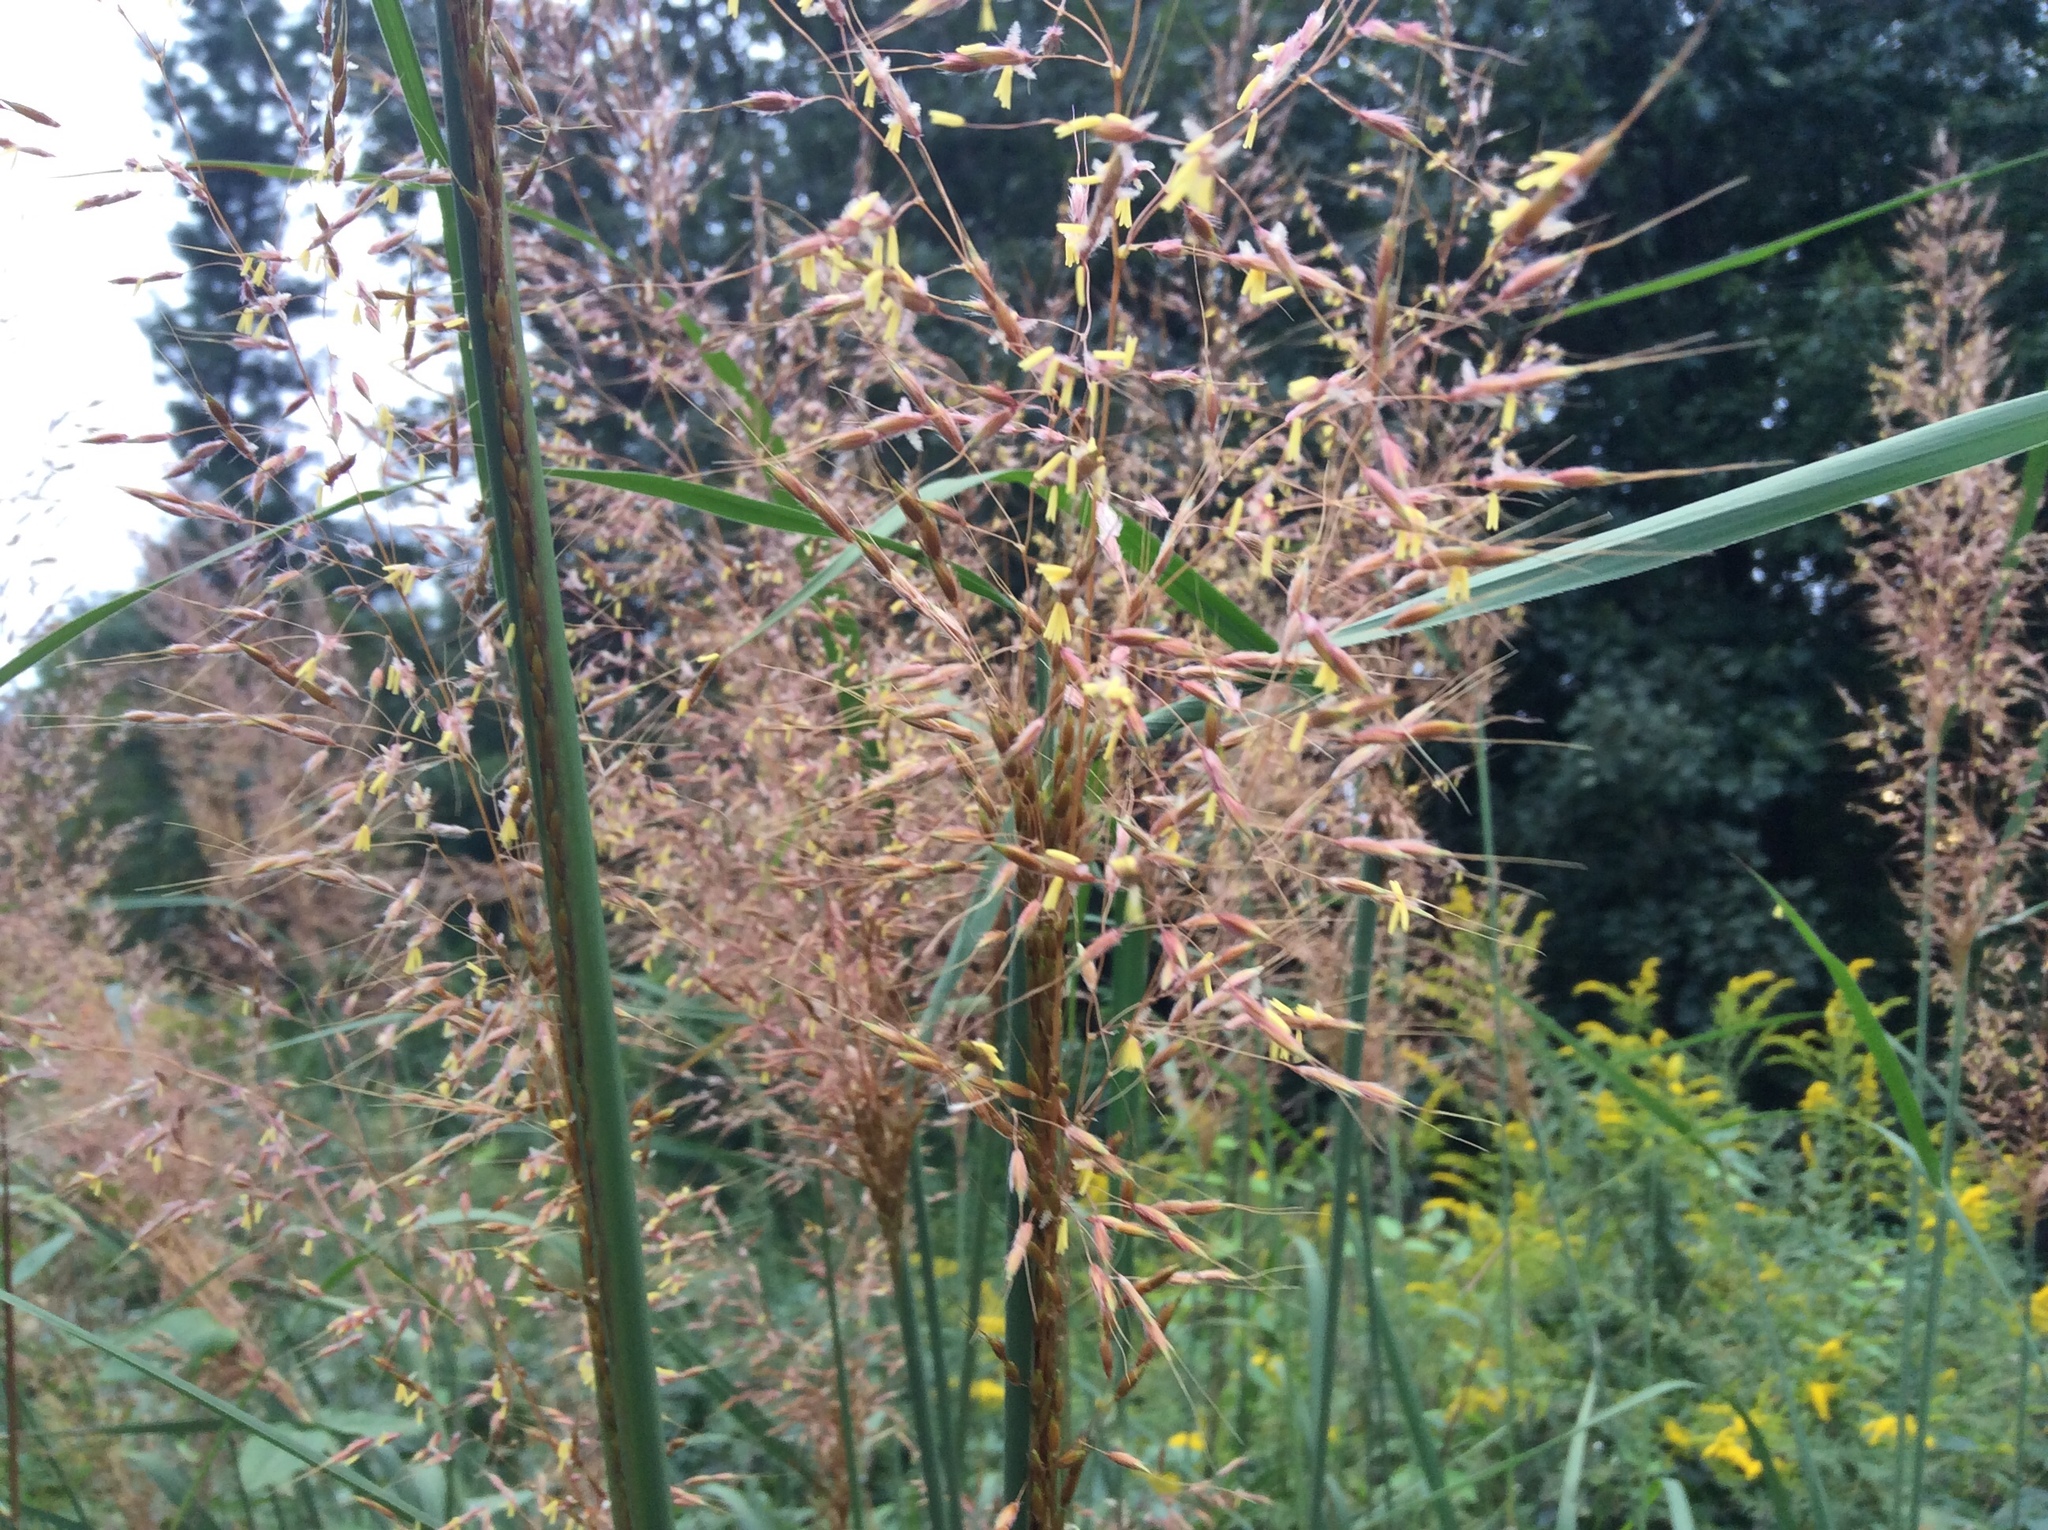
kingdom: Plantae
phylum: Tracheophyta
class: Liliopsida
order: Poales
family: Poaceae
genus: Sorghastrum
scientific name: Sorghastrum nutans
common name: Indian grass
